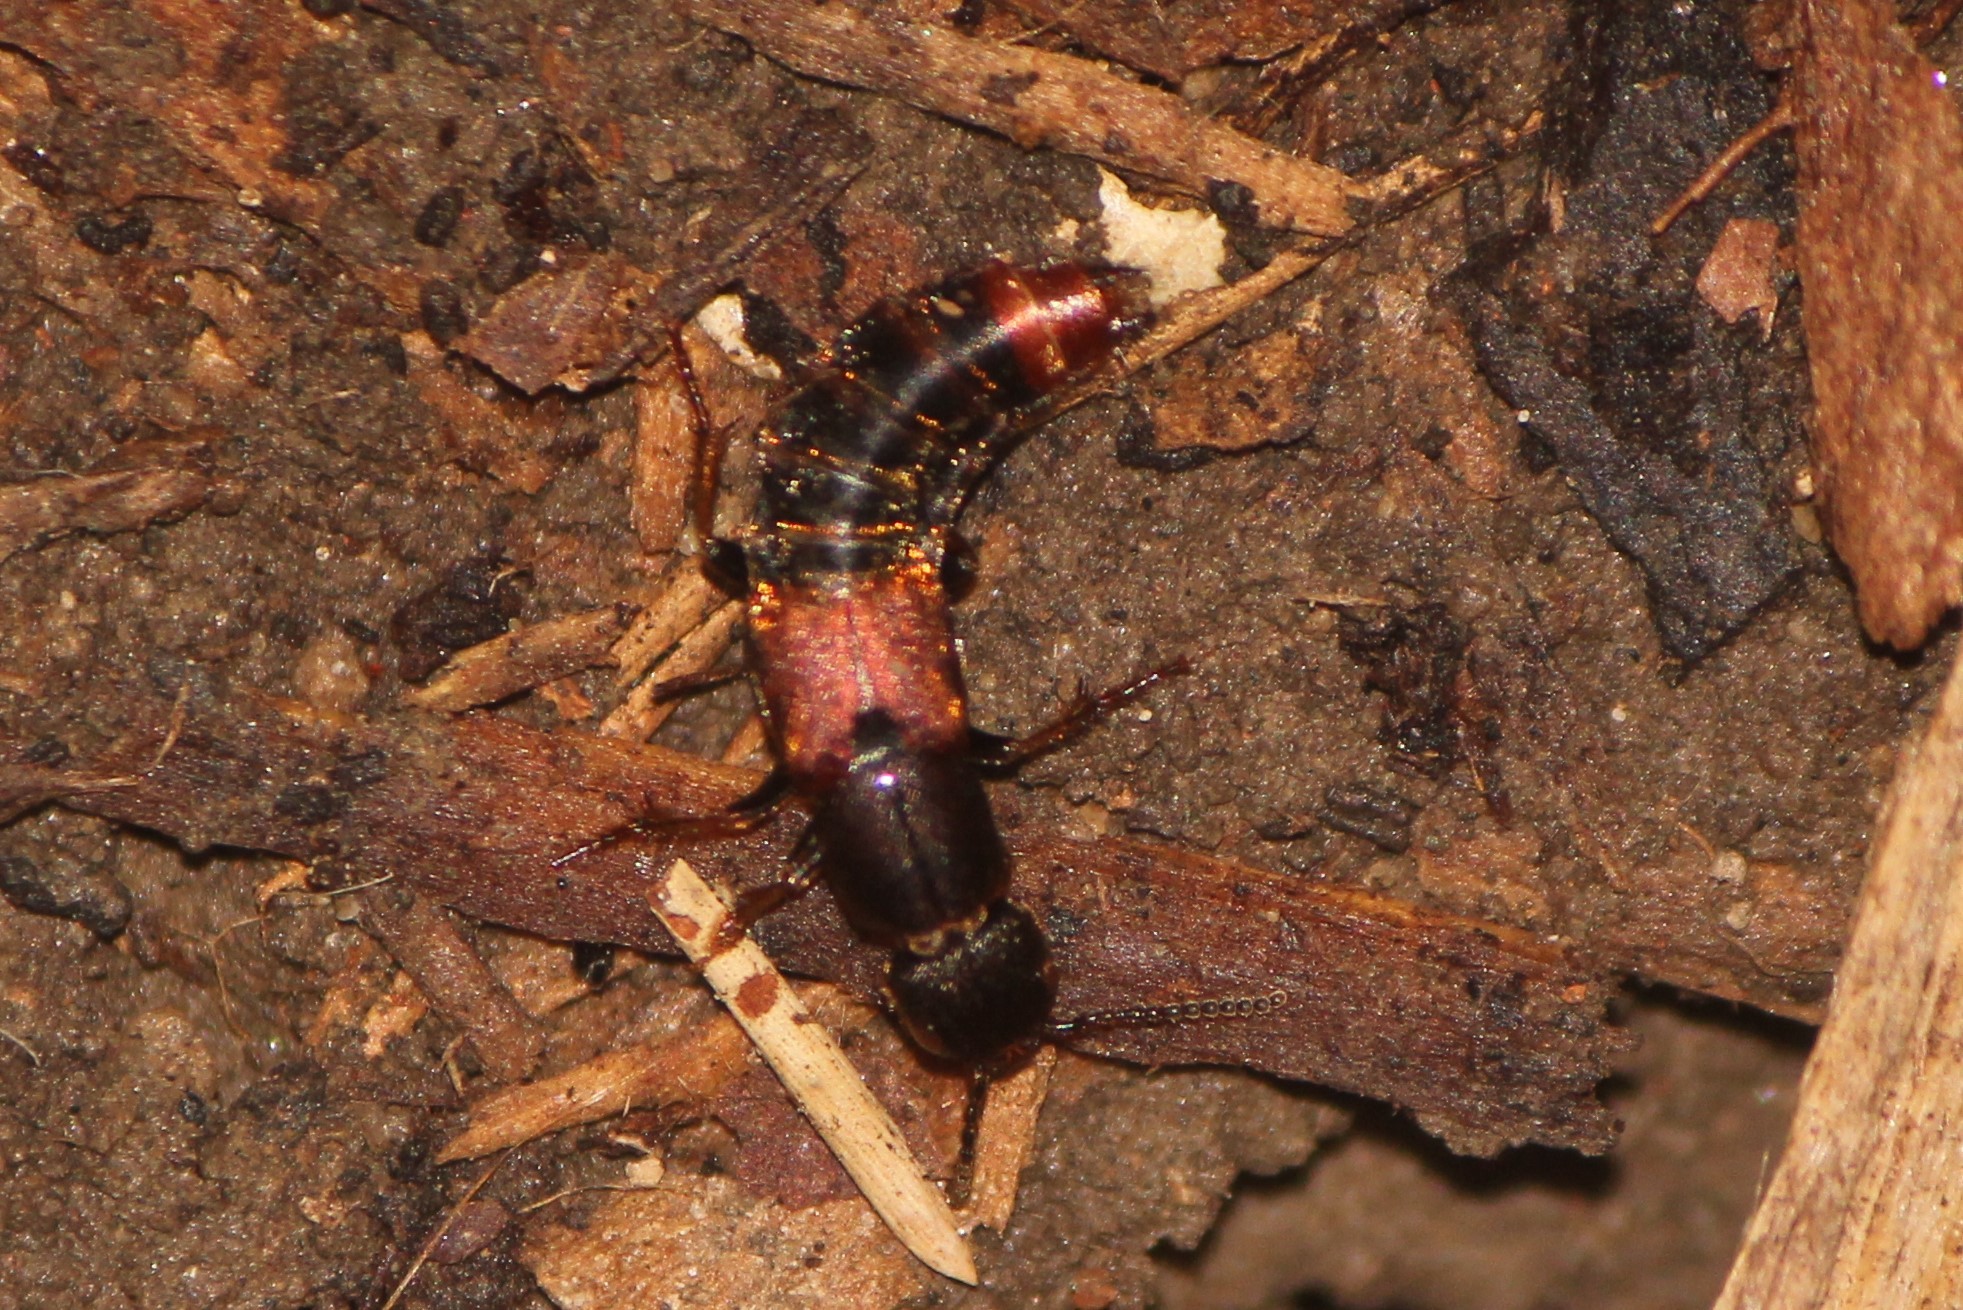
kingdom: Animalia
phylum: Arthropoda
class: Insecta
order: Coleoptera
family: Staphylinidae
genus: Platydracus
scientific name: Platydracus cinnamopterus
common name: Cinnamon rove beetle
